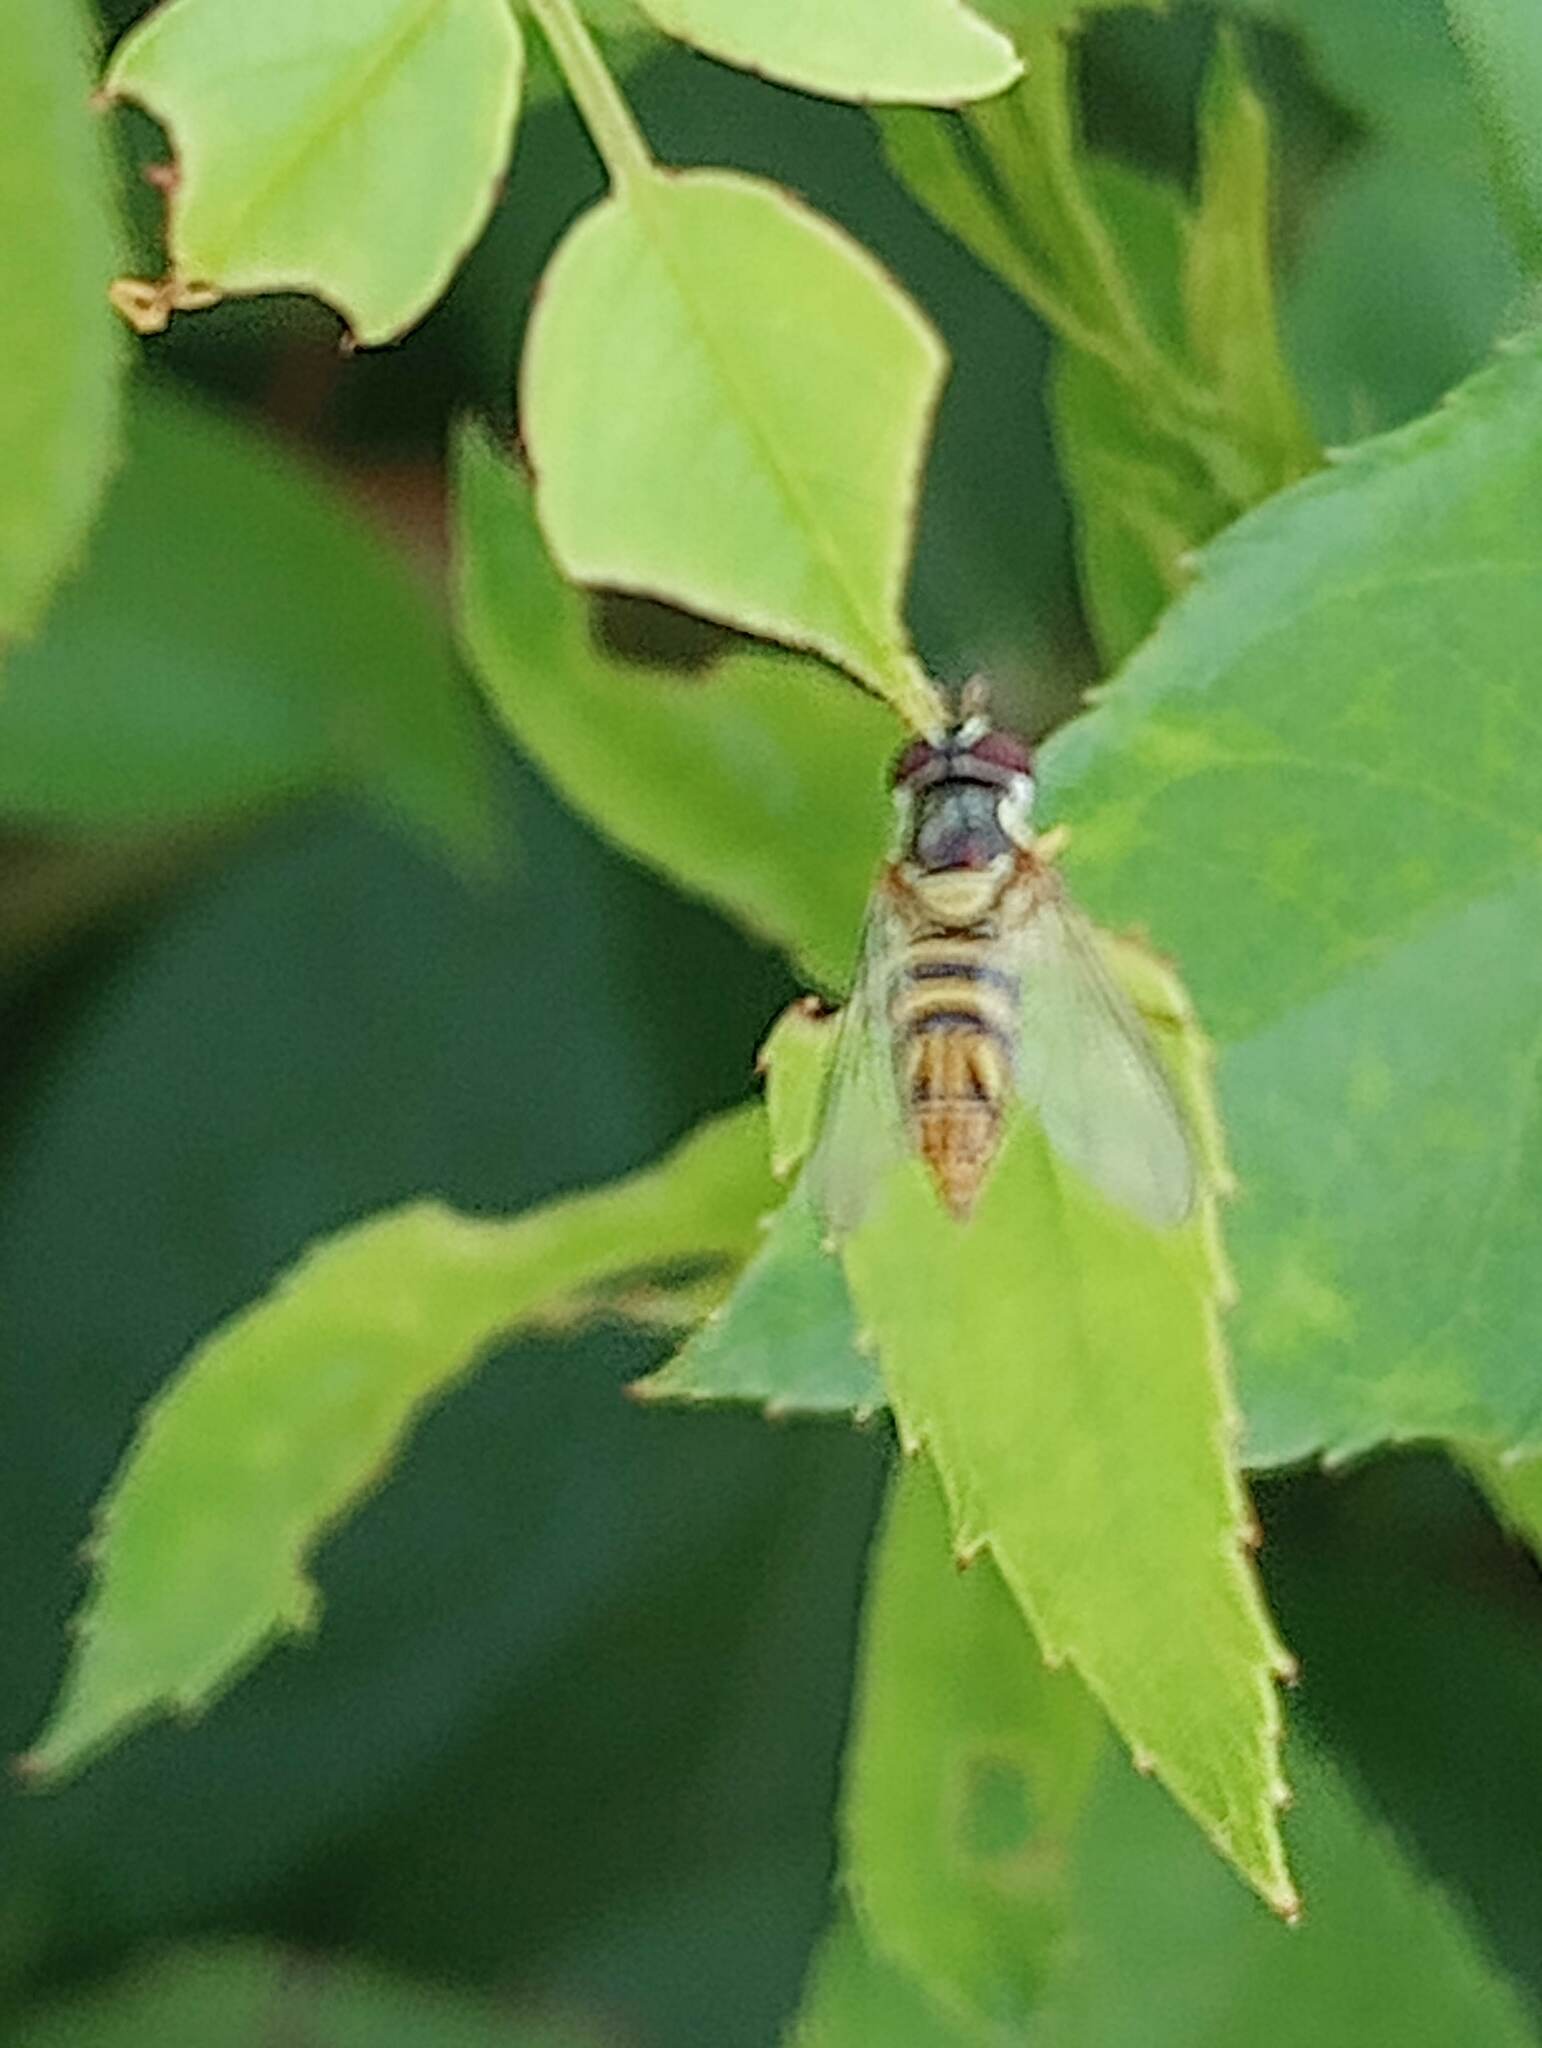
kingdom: Animalia
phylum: Arthropoda
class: Insecta
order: Diptera
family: Syrphidae
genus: Allograpta
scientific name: Allograpta obliqua
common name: Common oblique syrphid
